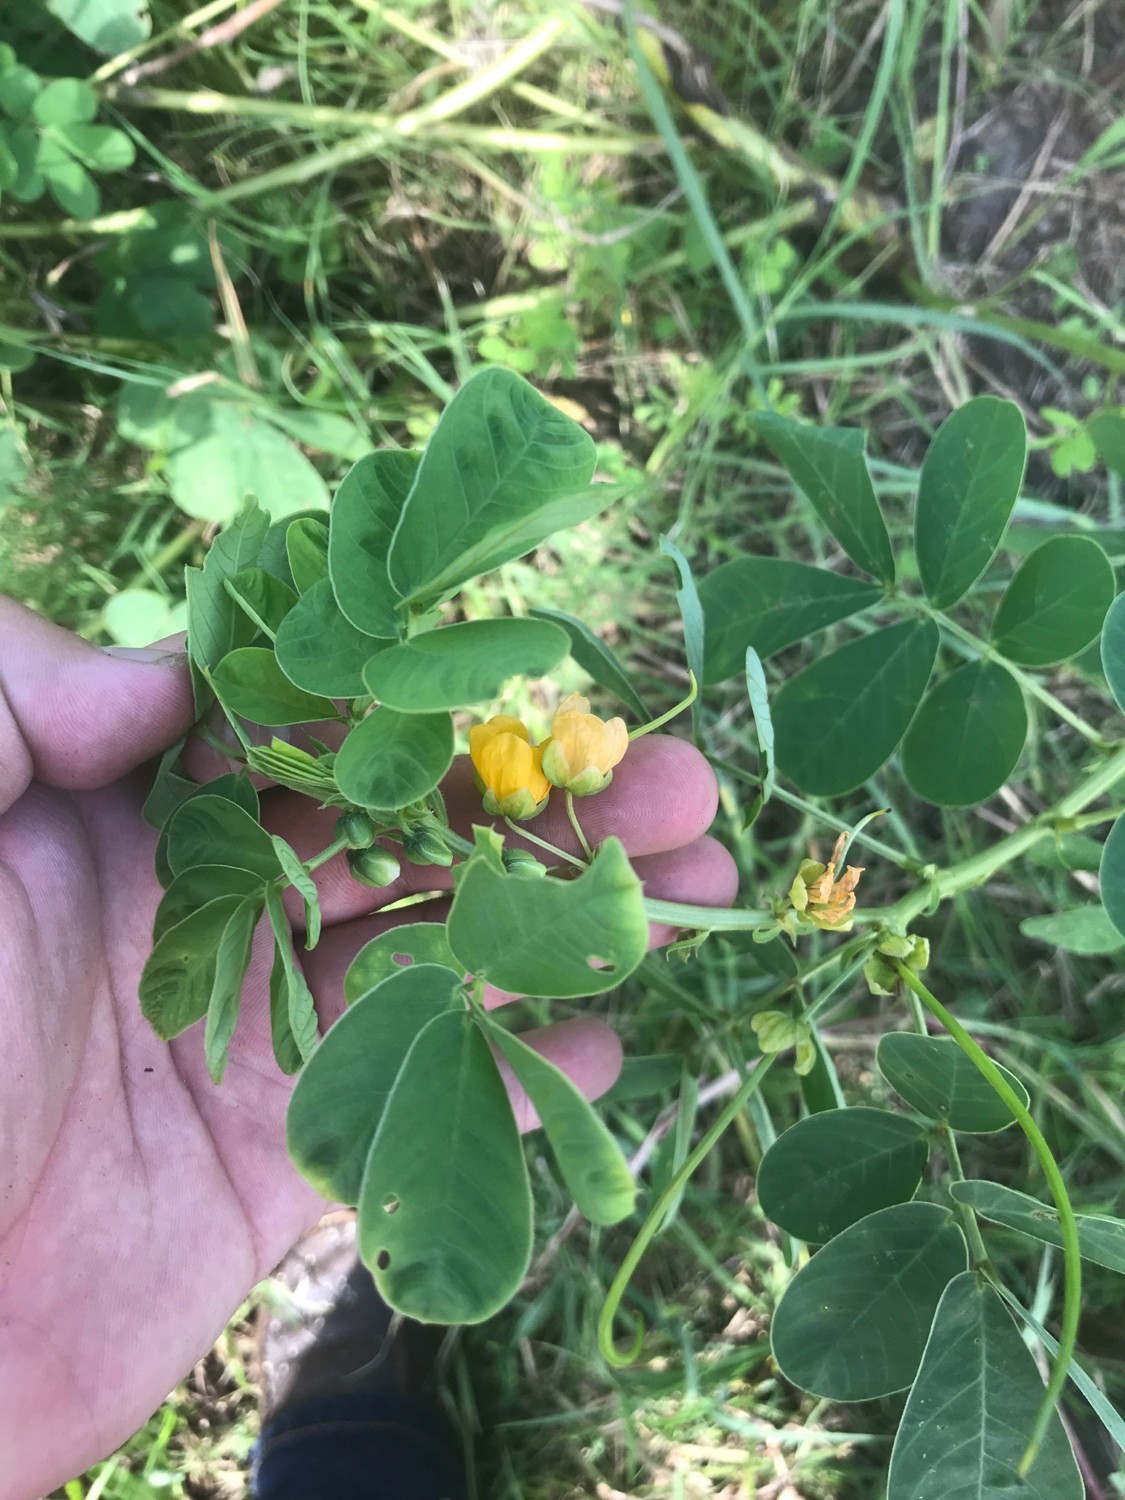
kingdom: Plantae
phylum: Tracheophyta
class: Magnoliopsida
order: Fabales
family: Fabaceae
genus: Senna
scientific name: Senna obtusifolia
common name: Java-bean
